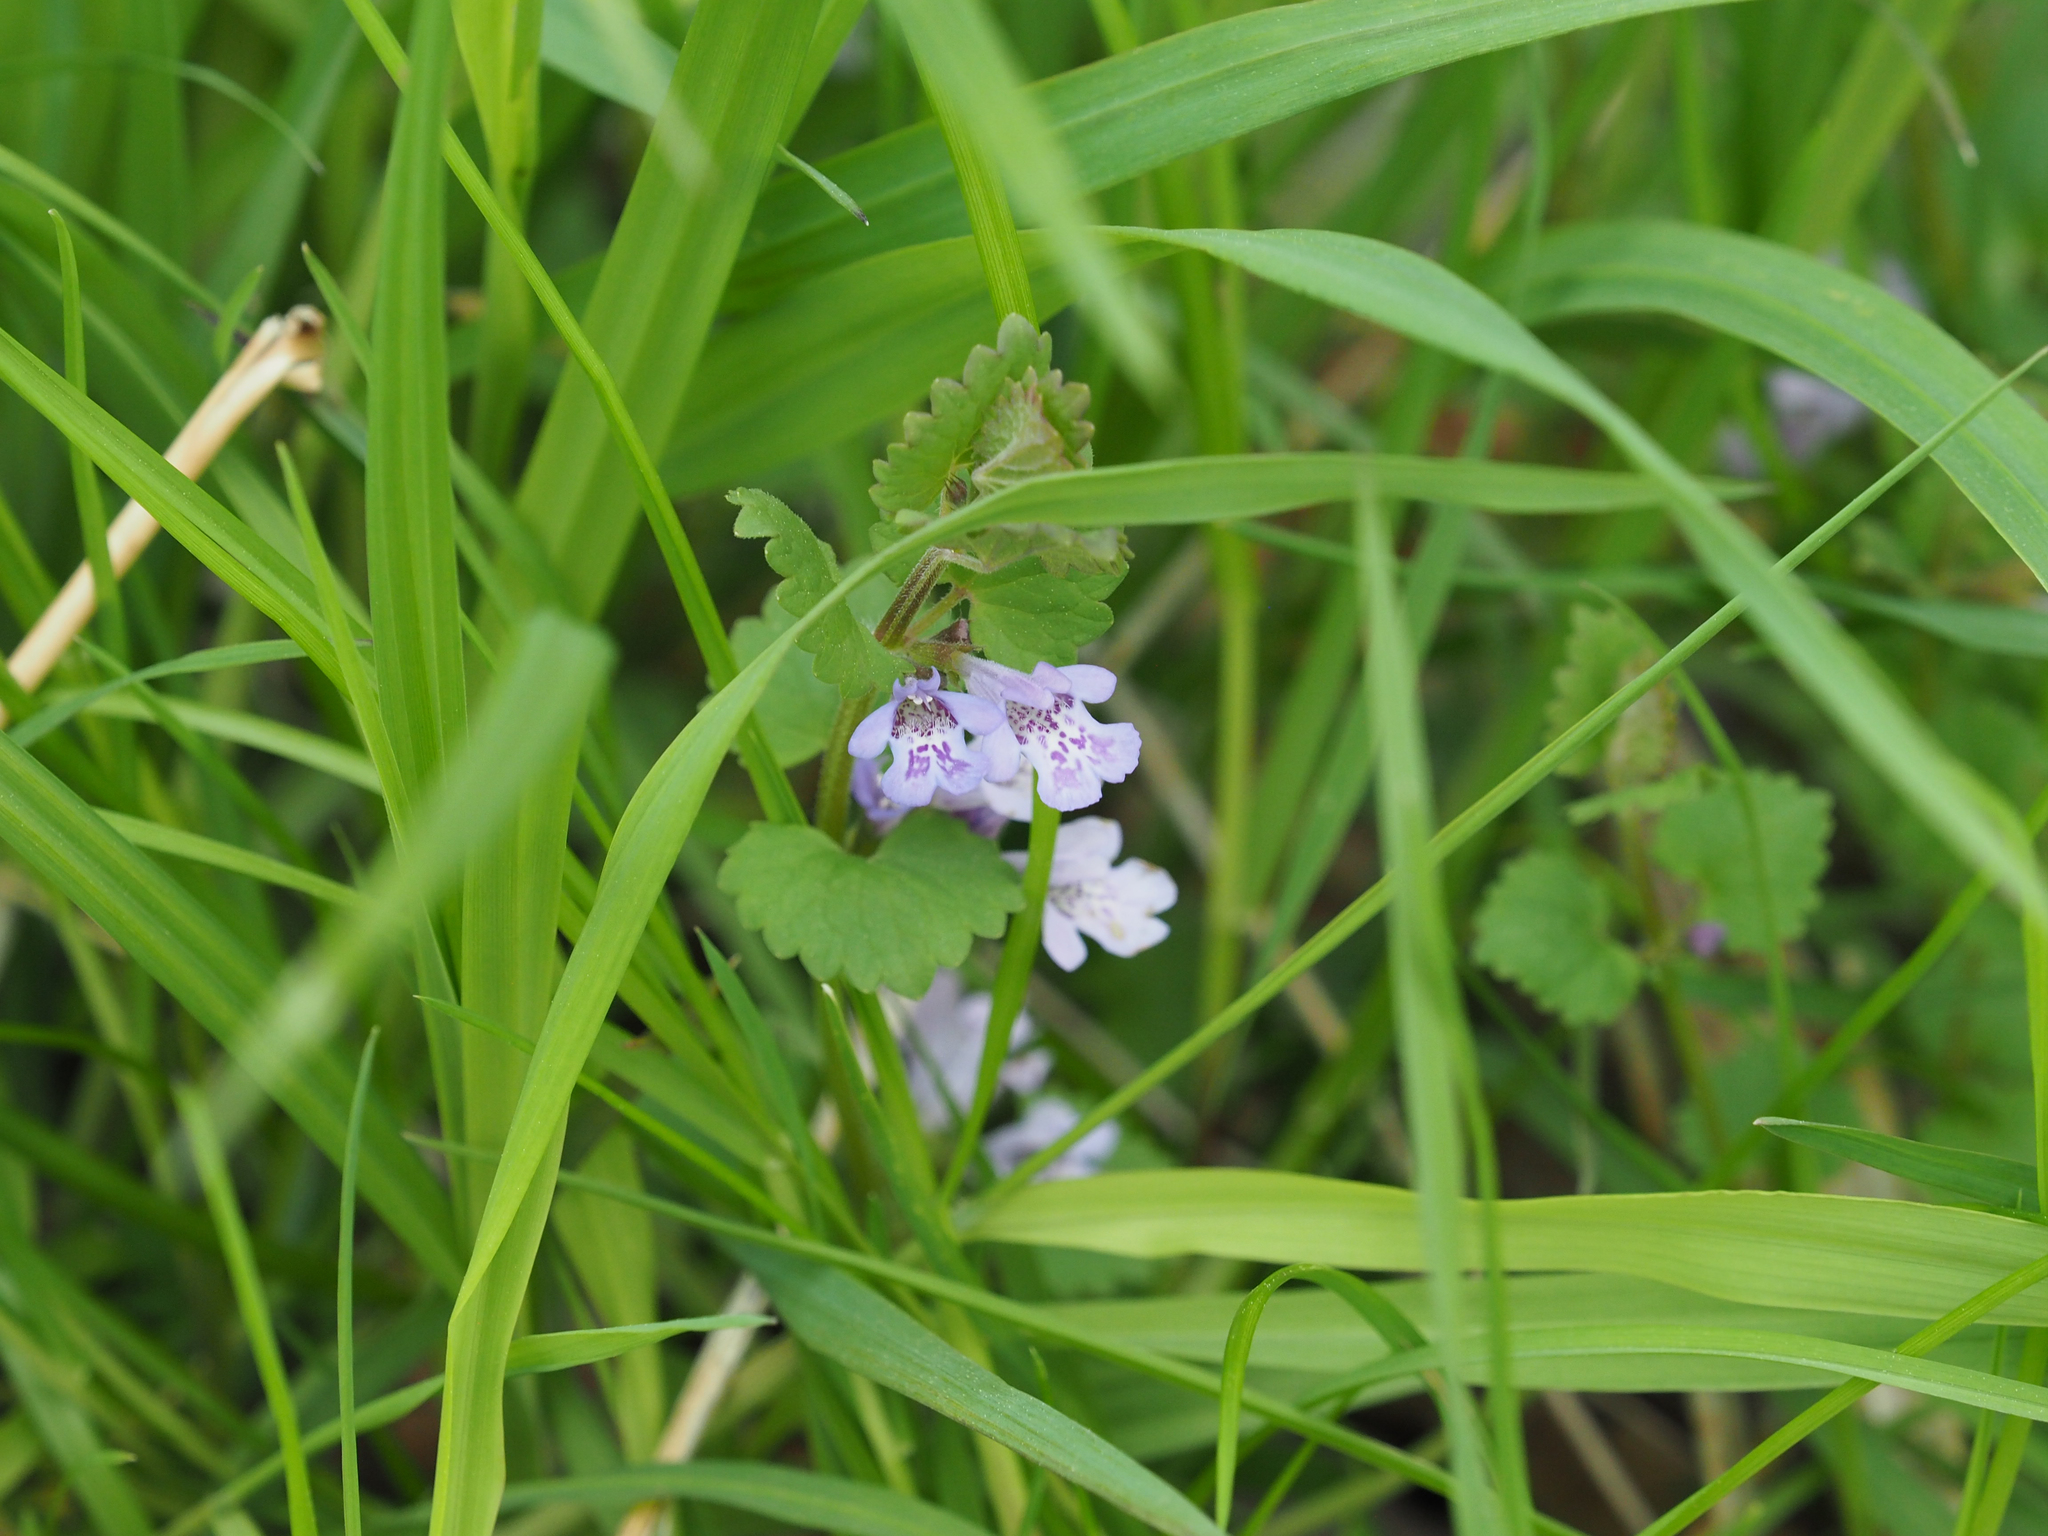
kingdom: Plantae
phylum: Tracheophyta
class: Magnoliopsida
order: Lamiales
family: Lamiaceae
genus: Glechoma
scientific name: Glechoma hederacea
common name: Ground ivy
